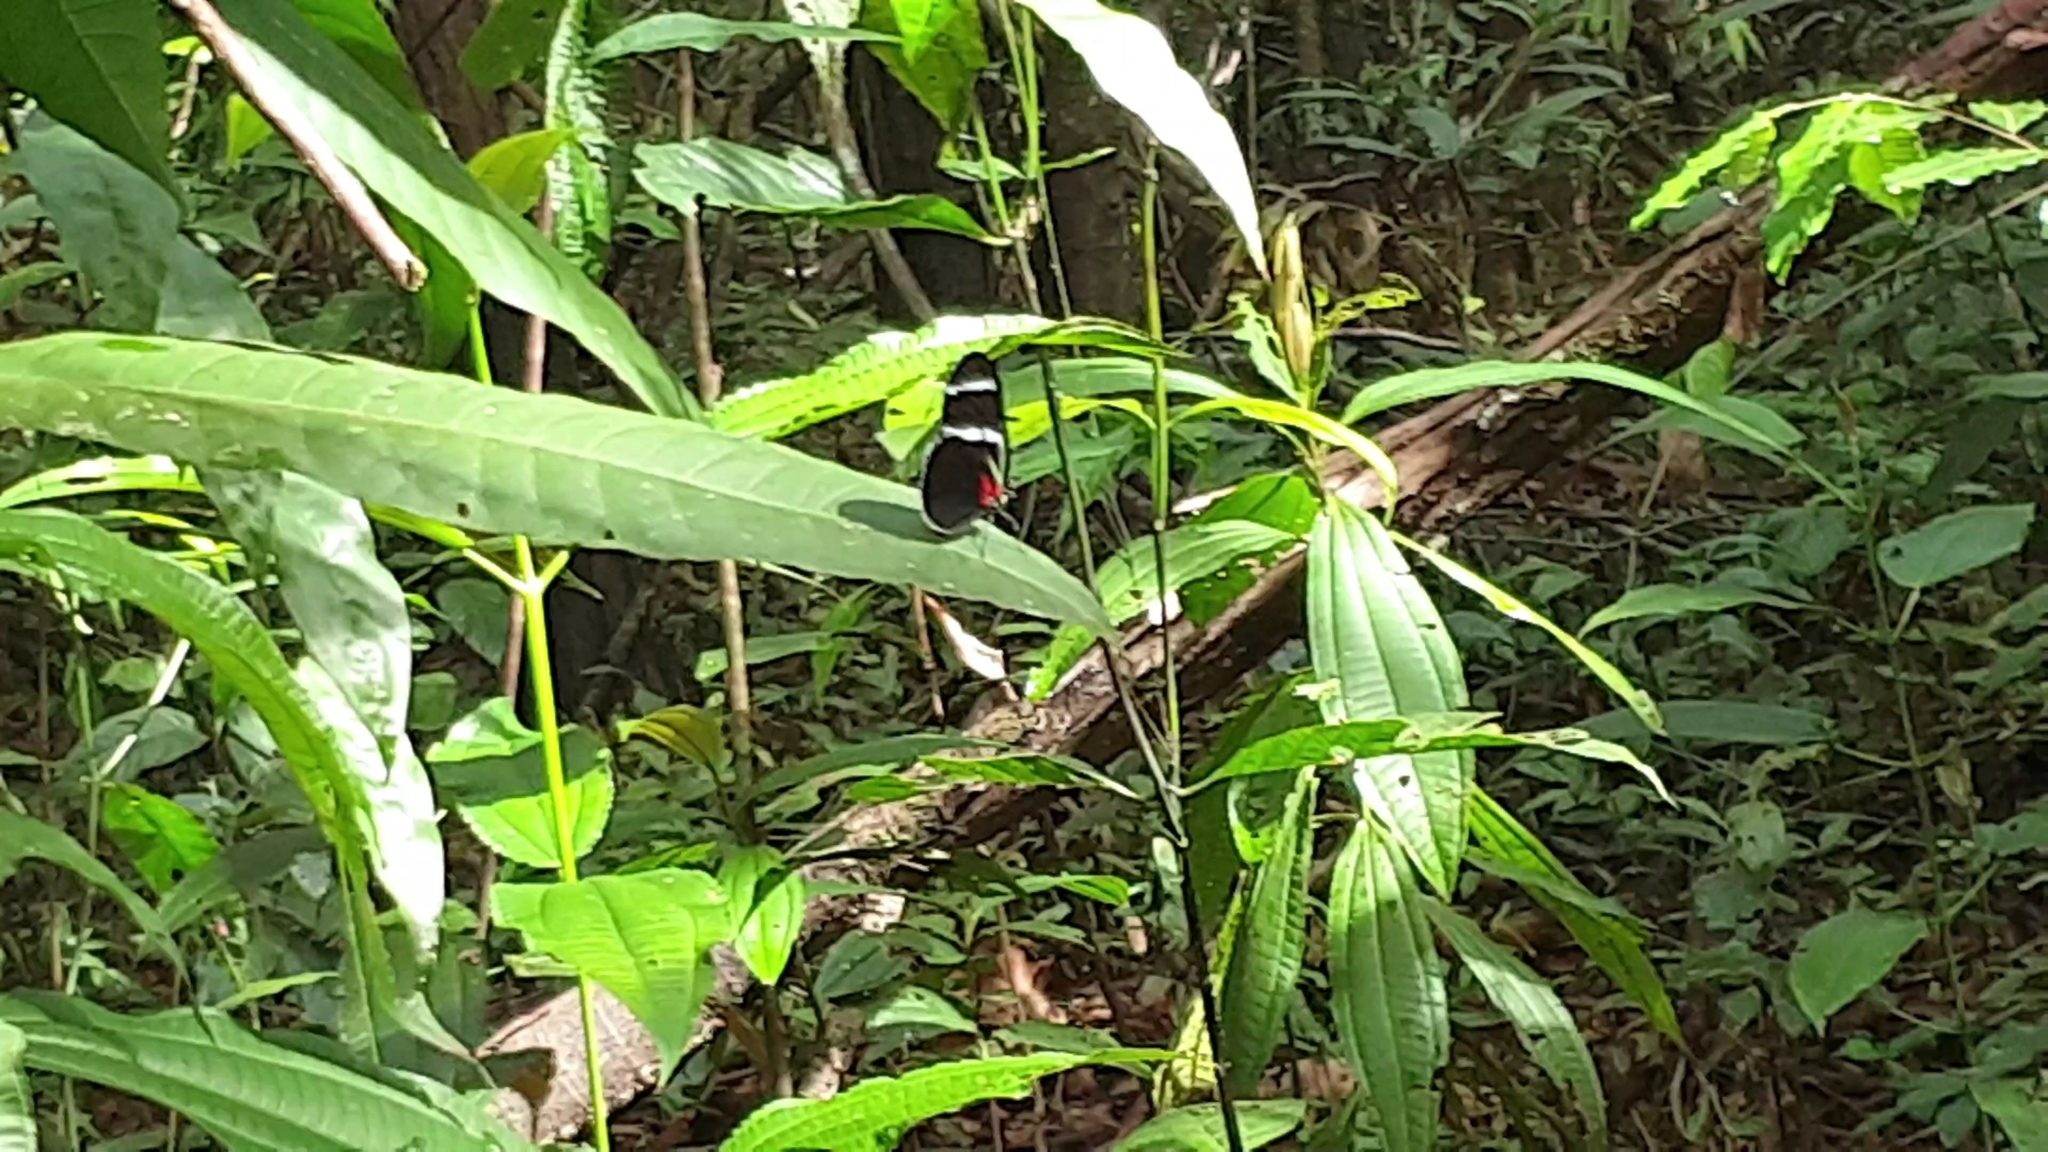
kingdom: Animalia
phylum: Arthropoda
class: Insecta
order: Lepidoptera
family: Nymphalidae
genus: Heliconius
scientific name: Heliconius antiochus
